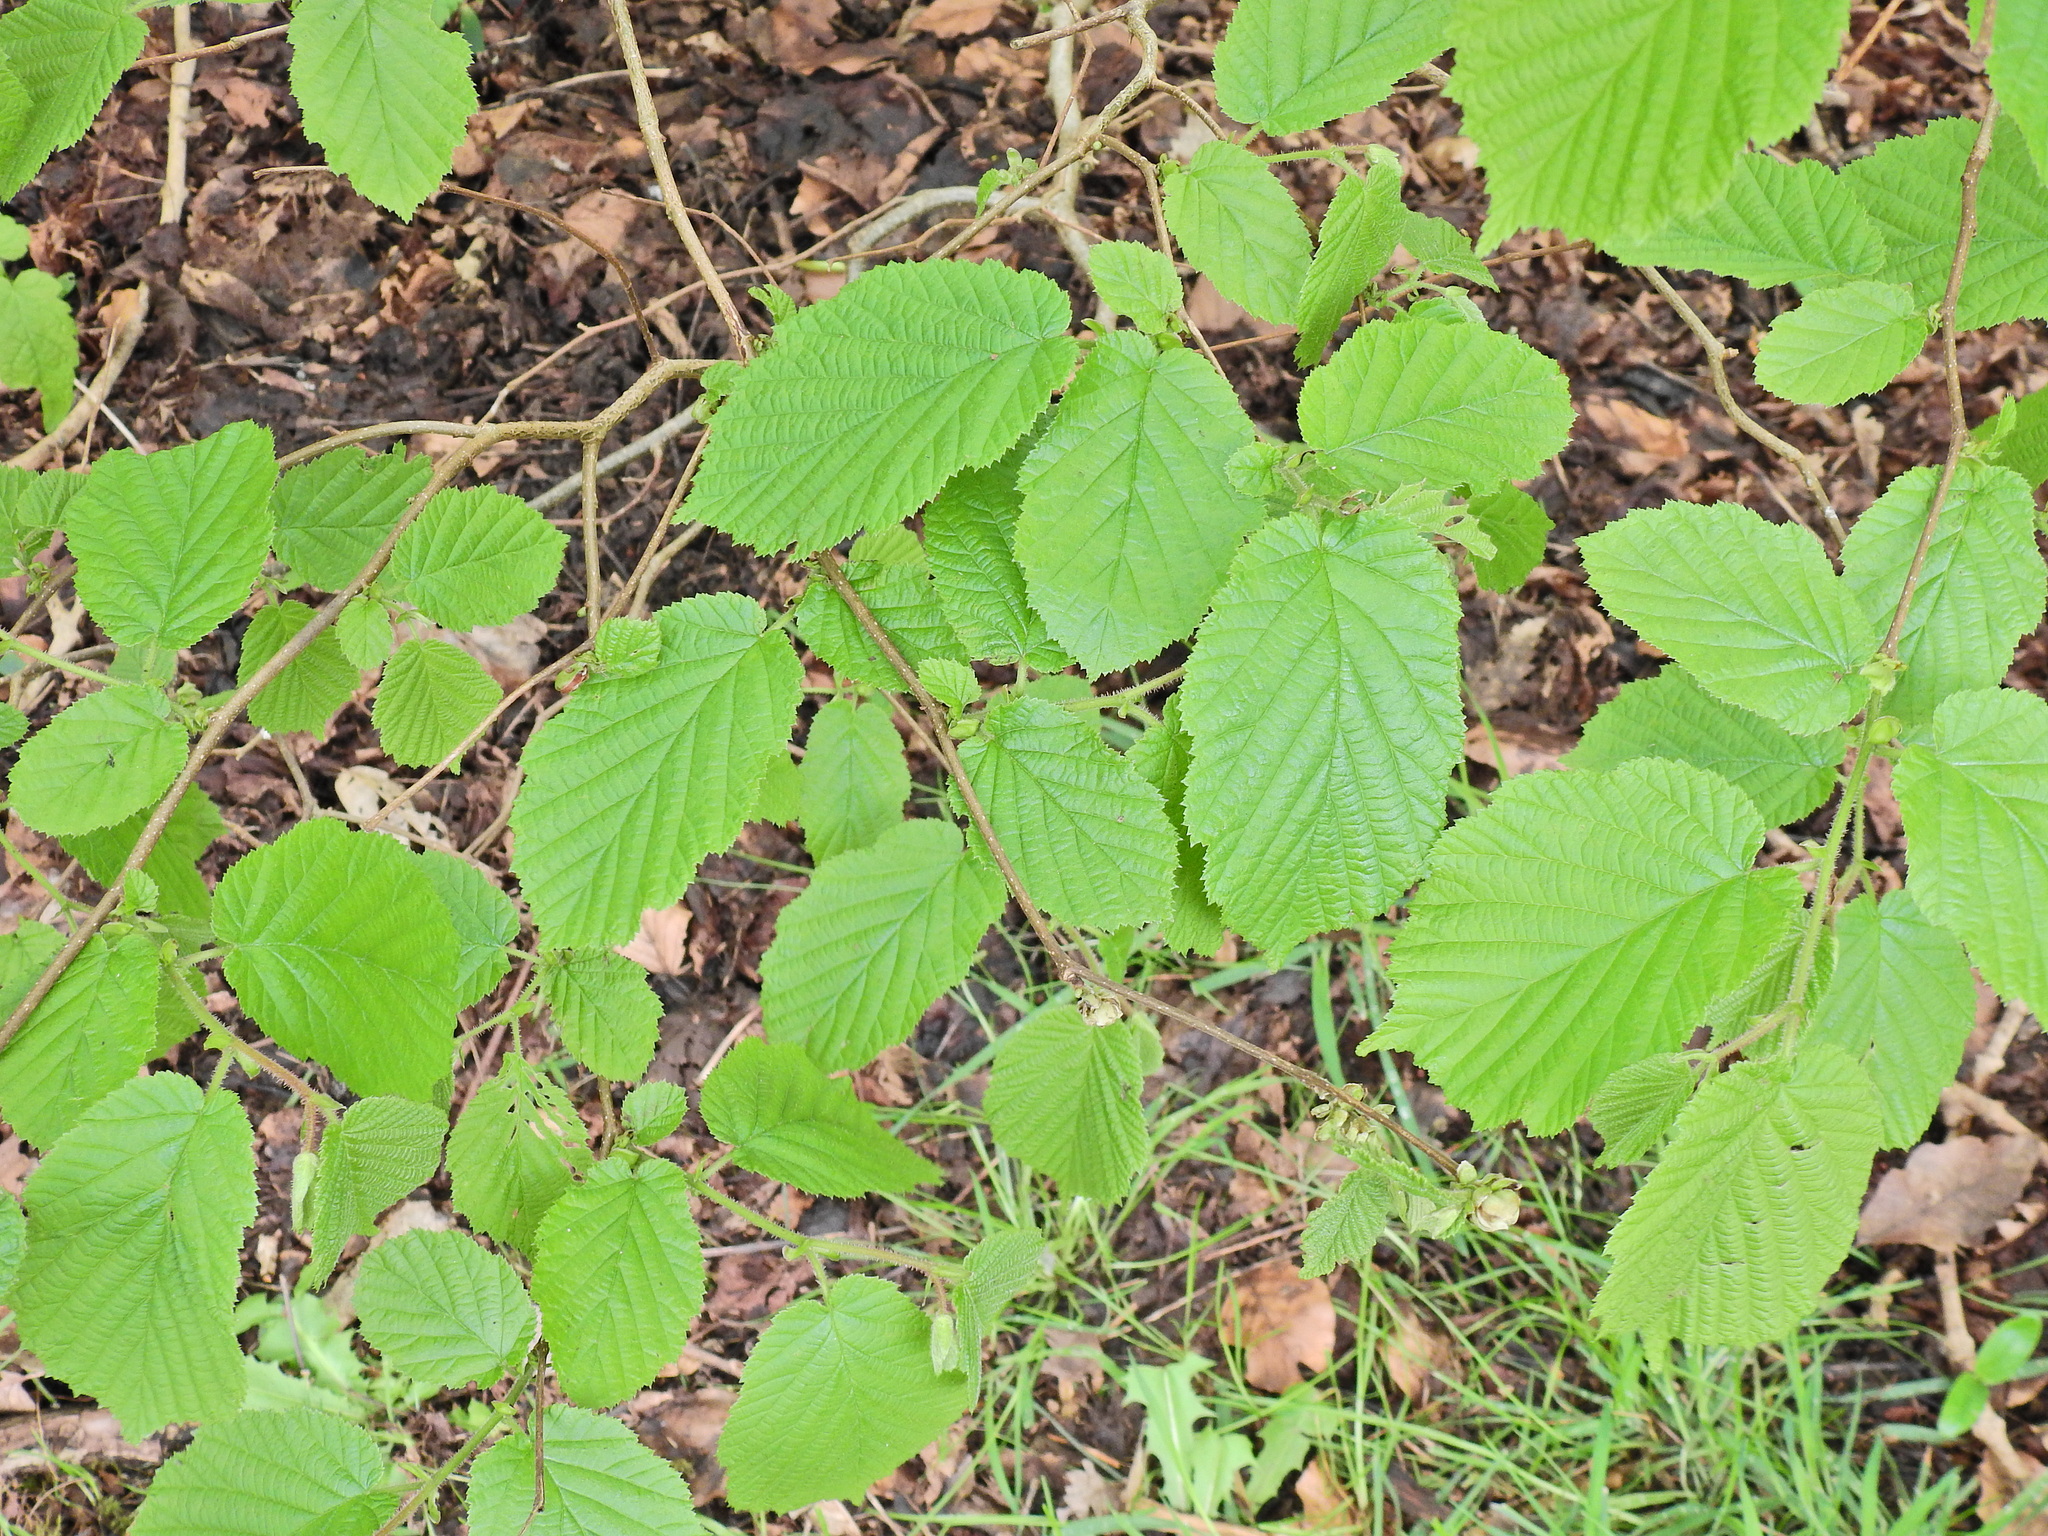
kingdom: Plantae
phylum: Tracheophyta
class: Magnoliopsida
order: Fagales
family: Betulaceae
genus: Corylus
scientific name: Corylus avellana
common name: European hazel
